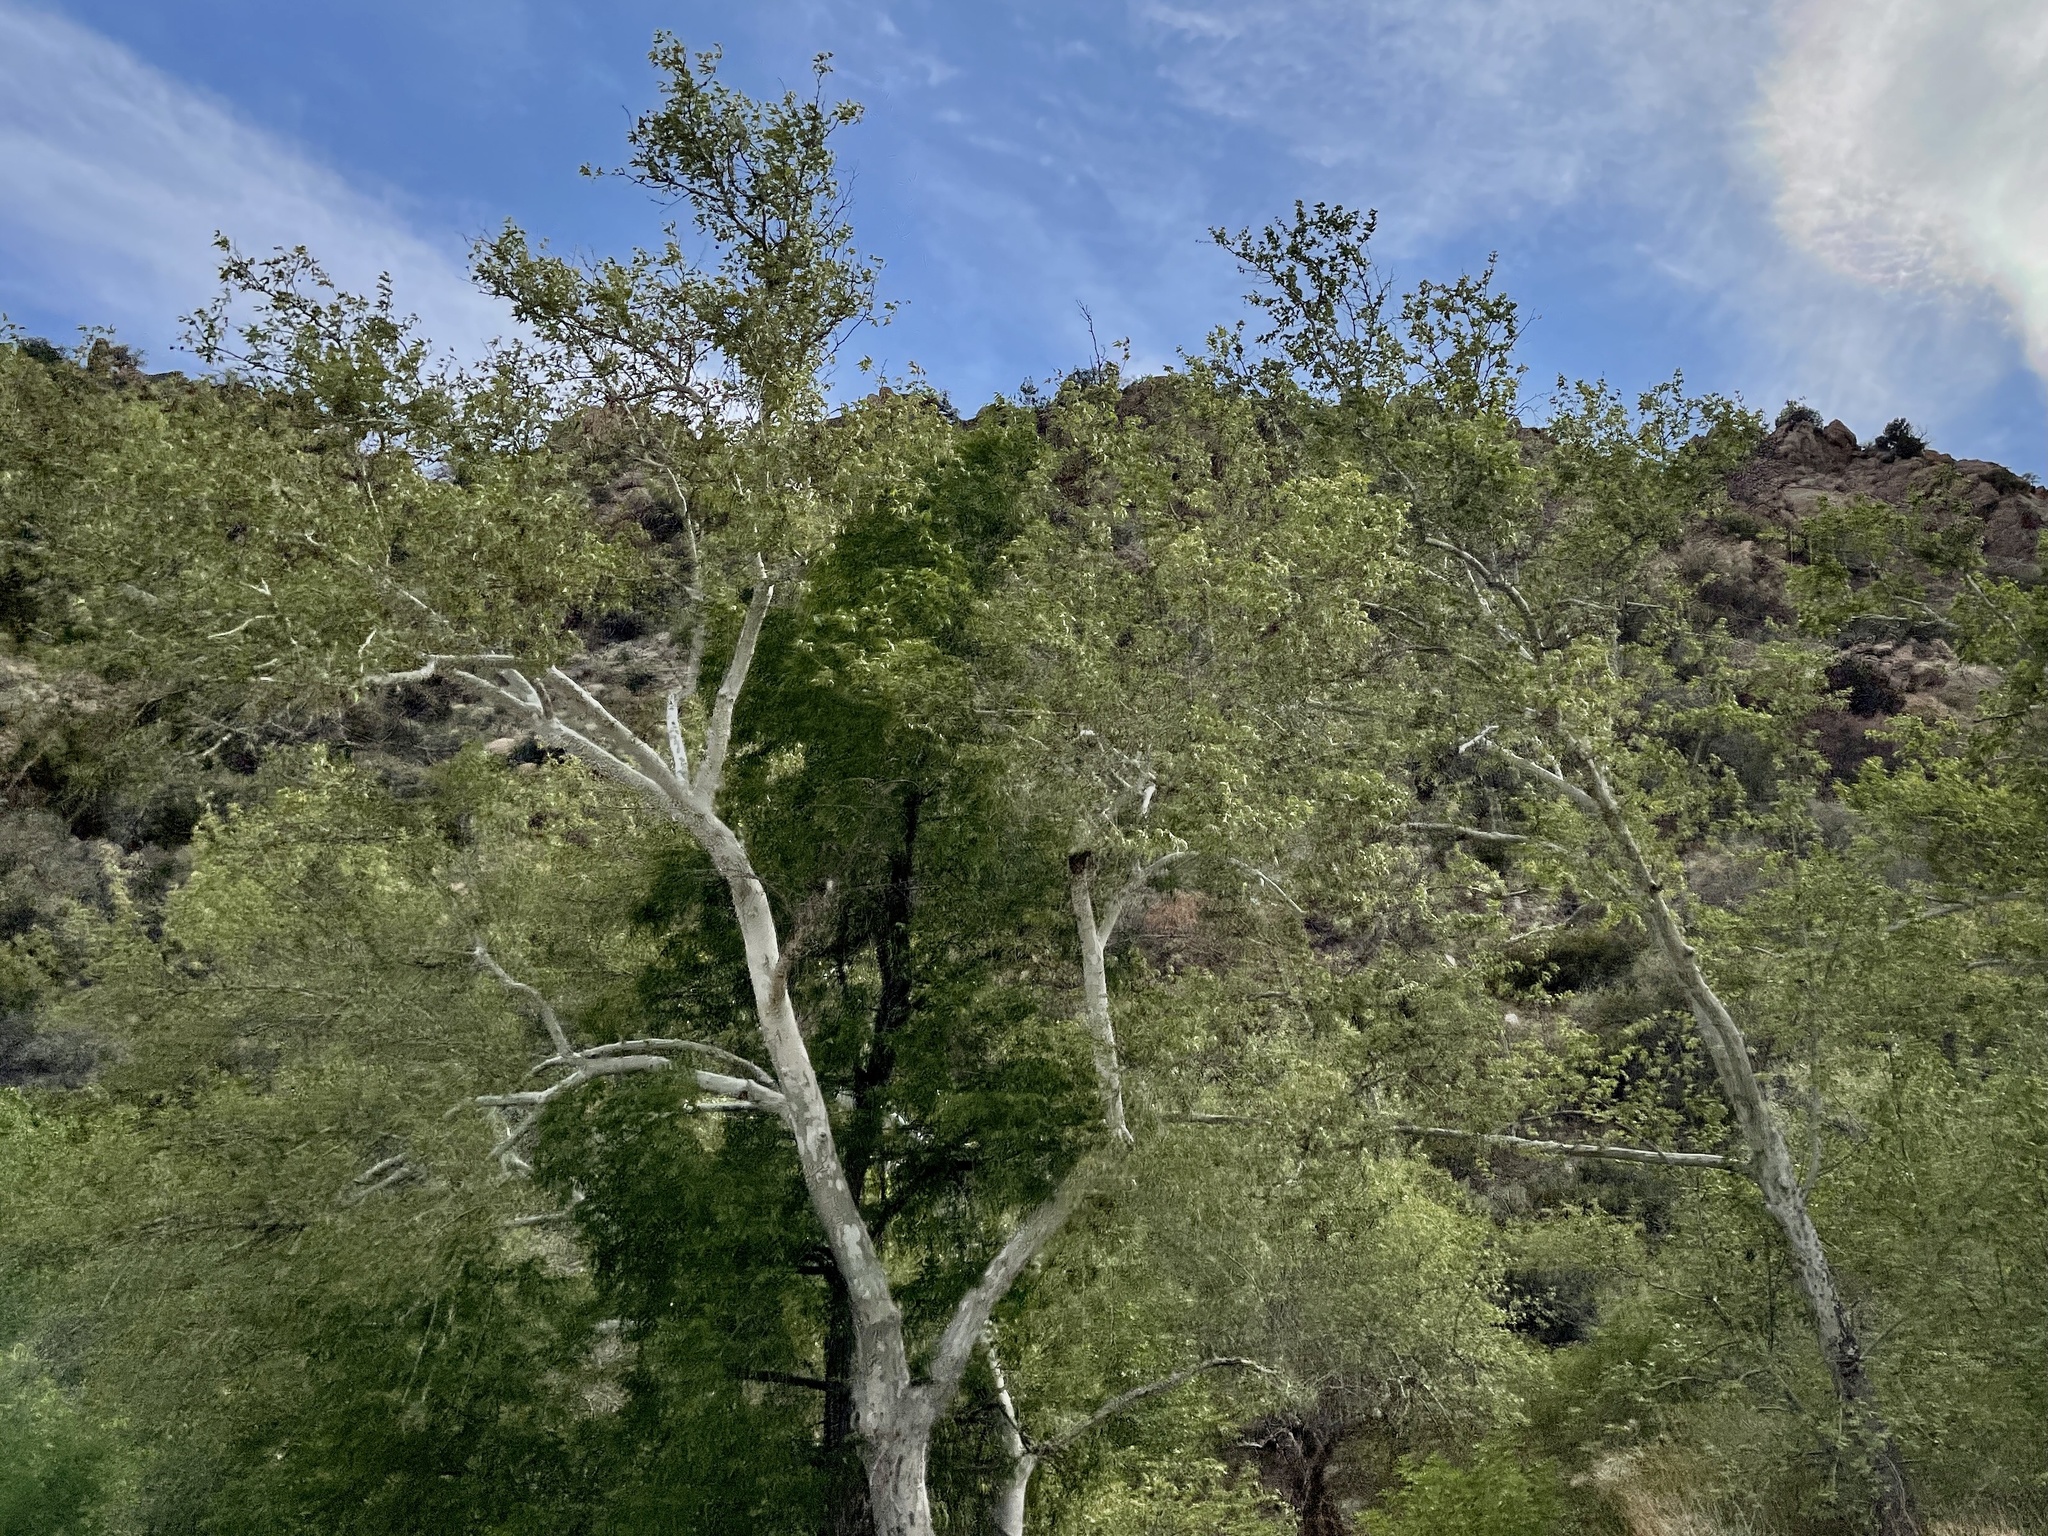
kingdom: Plantae
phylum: Tracheophyta
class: Magnoliopsida
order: Proteales
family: Platanaceae
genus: Platanus
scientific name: Platanus wrightii
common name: Arizona sycamore
